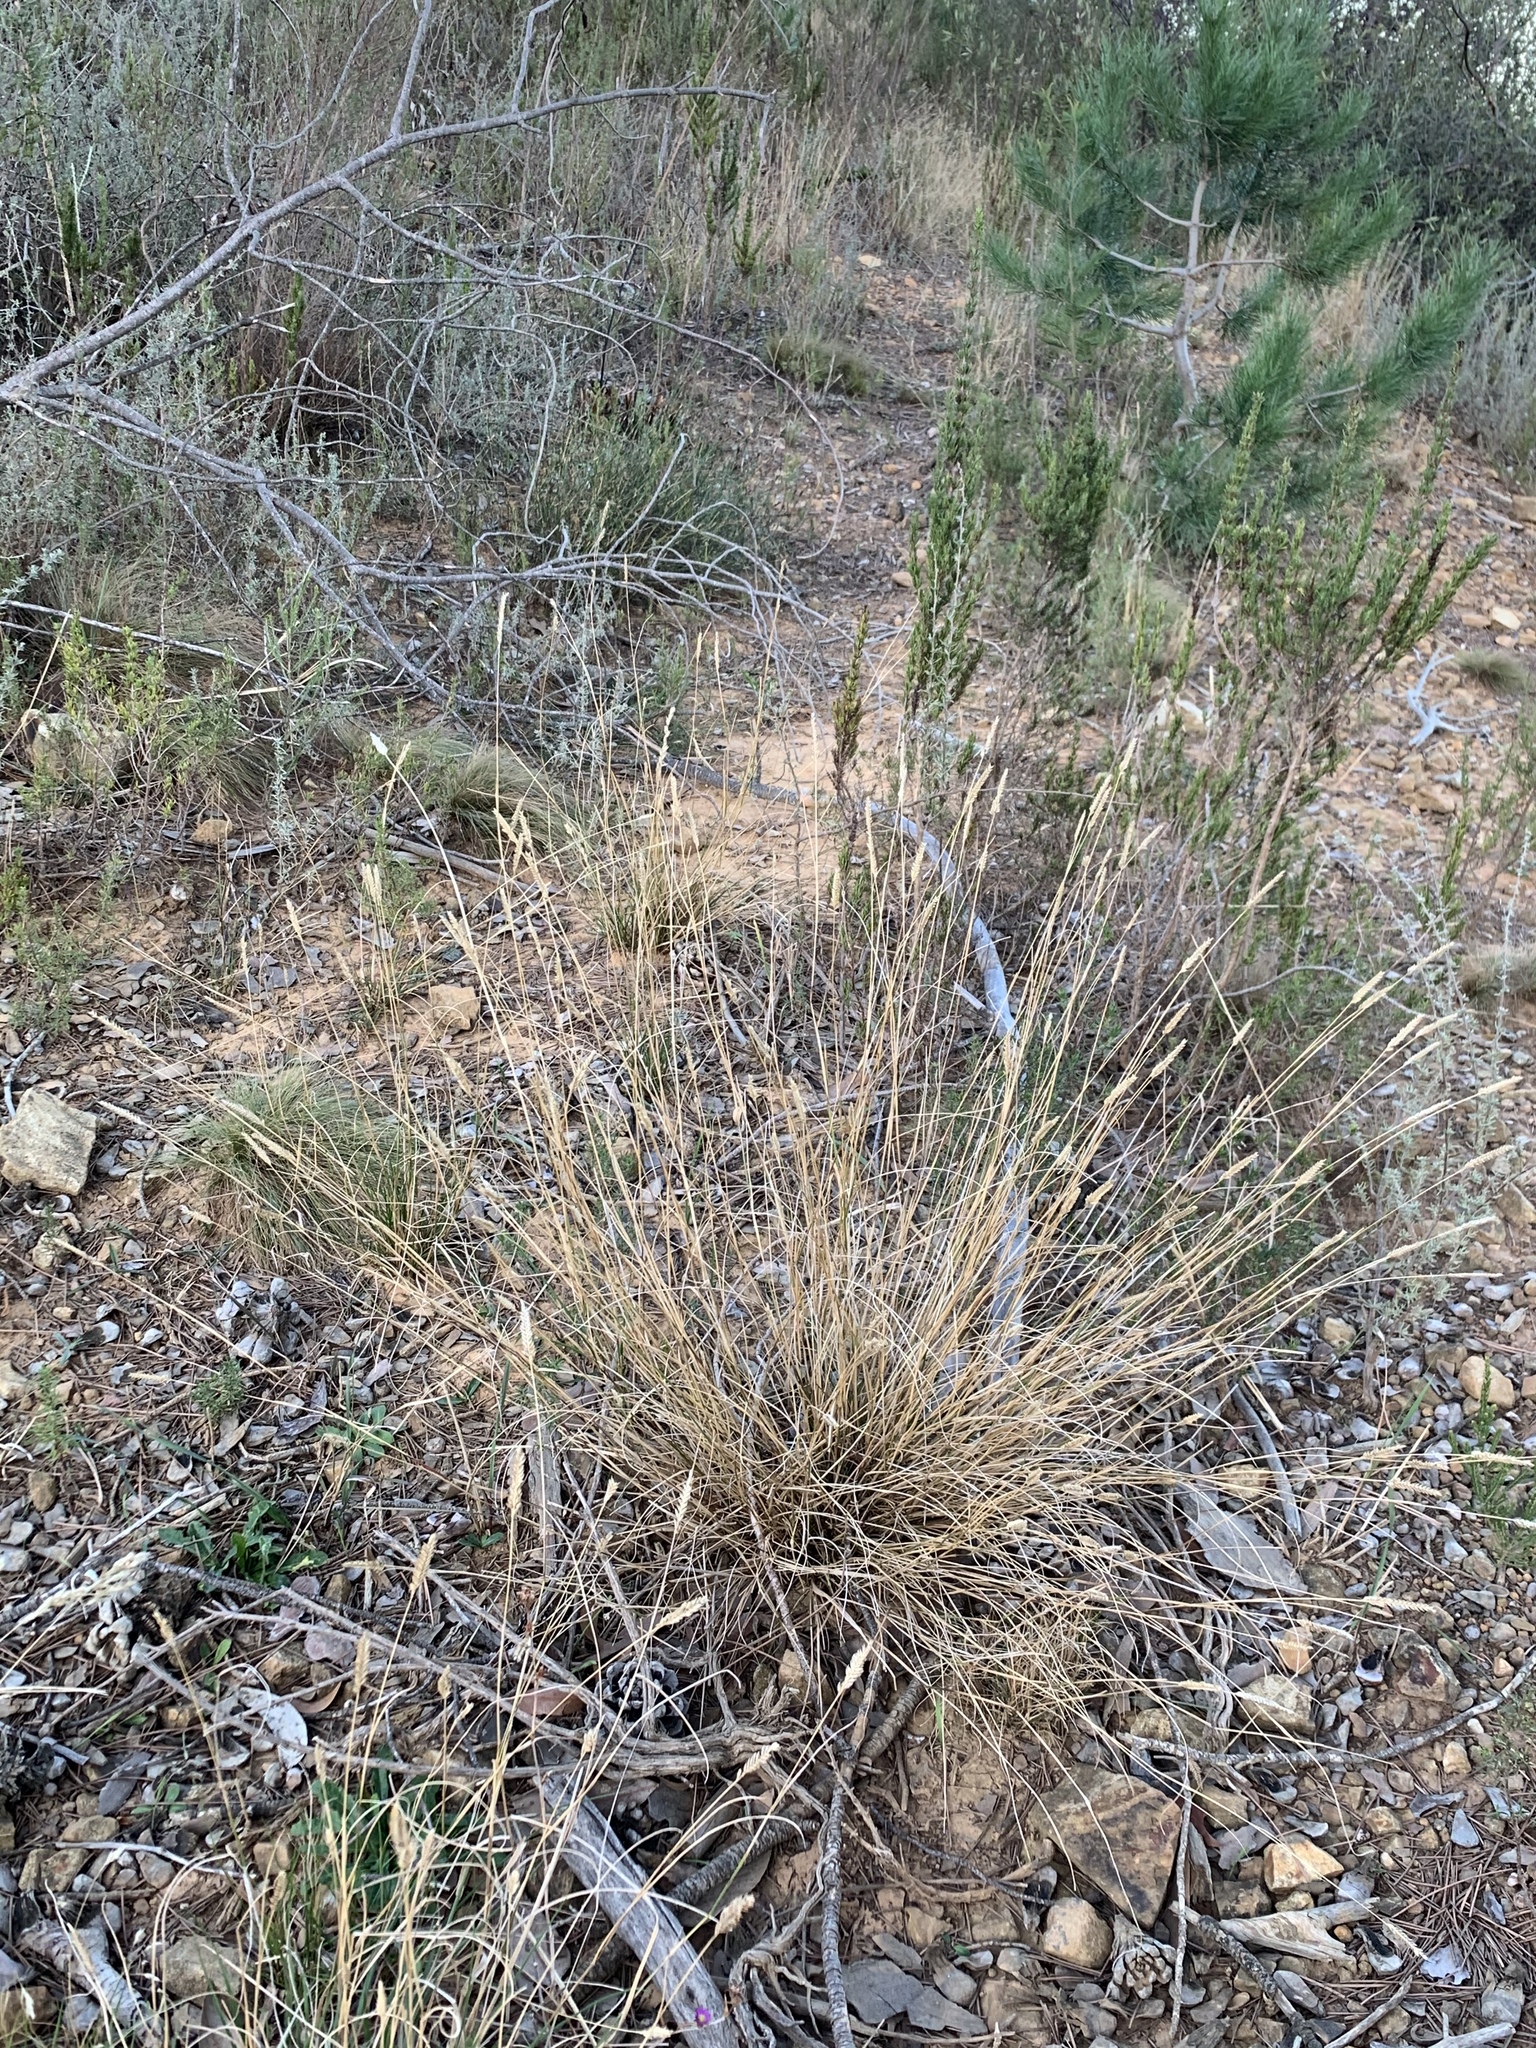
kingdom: Plantae
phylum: Tracheophyta
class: Liliopsida
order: Poales
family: Poaceae
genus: Tribolium
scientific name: Tribolium uniolae
